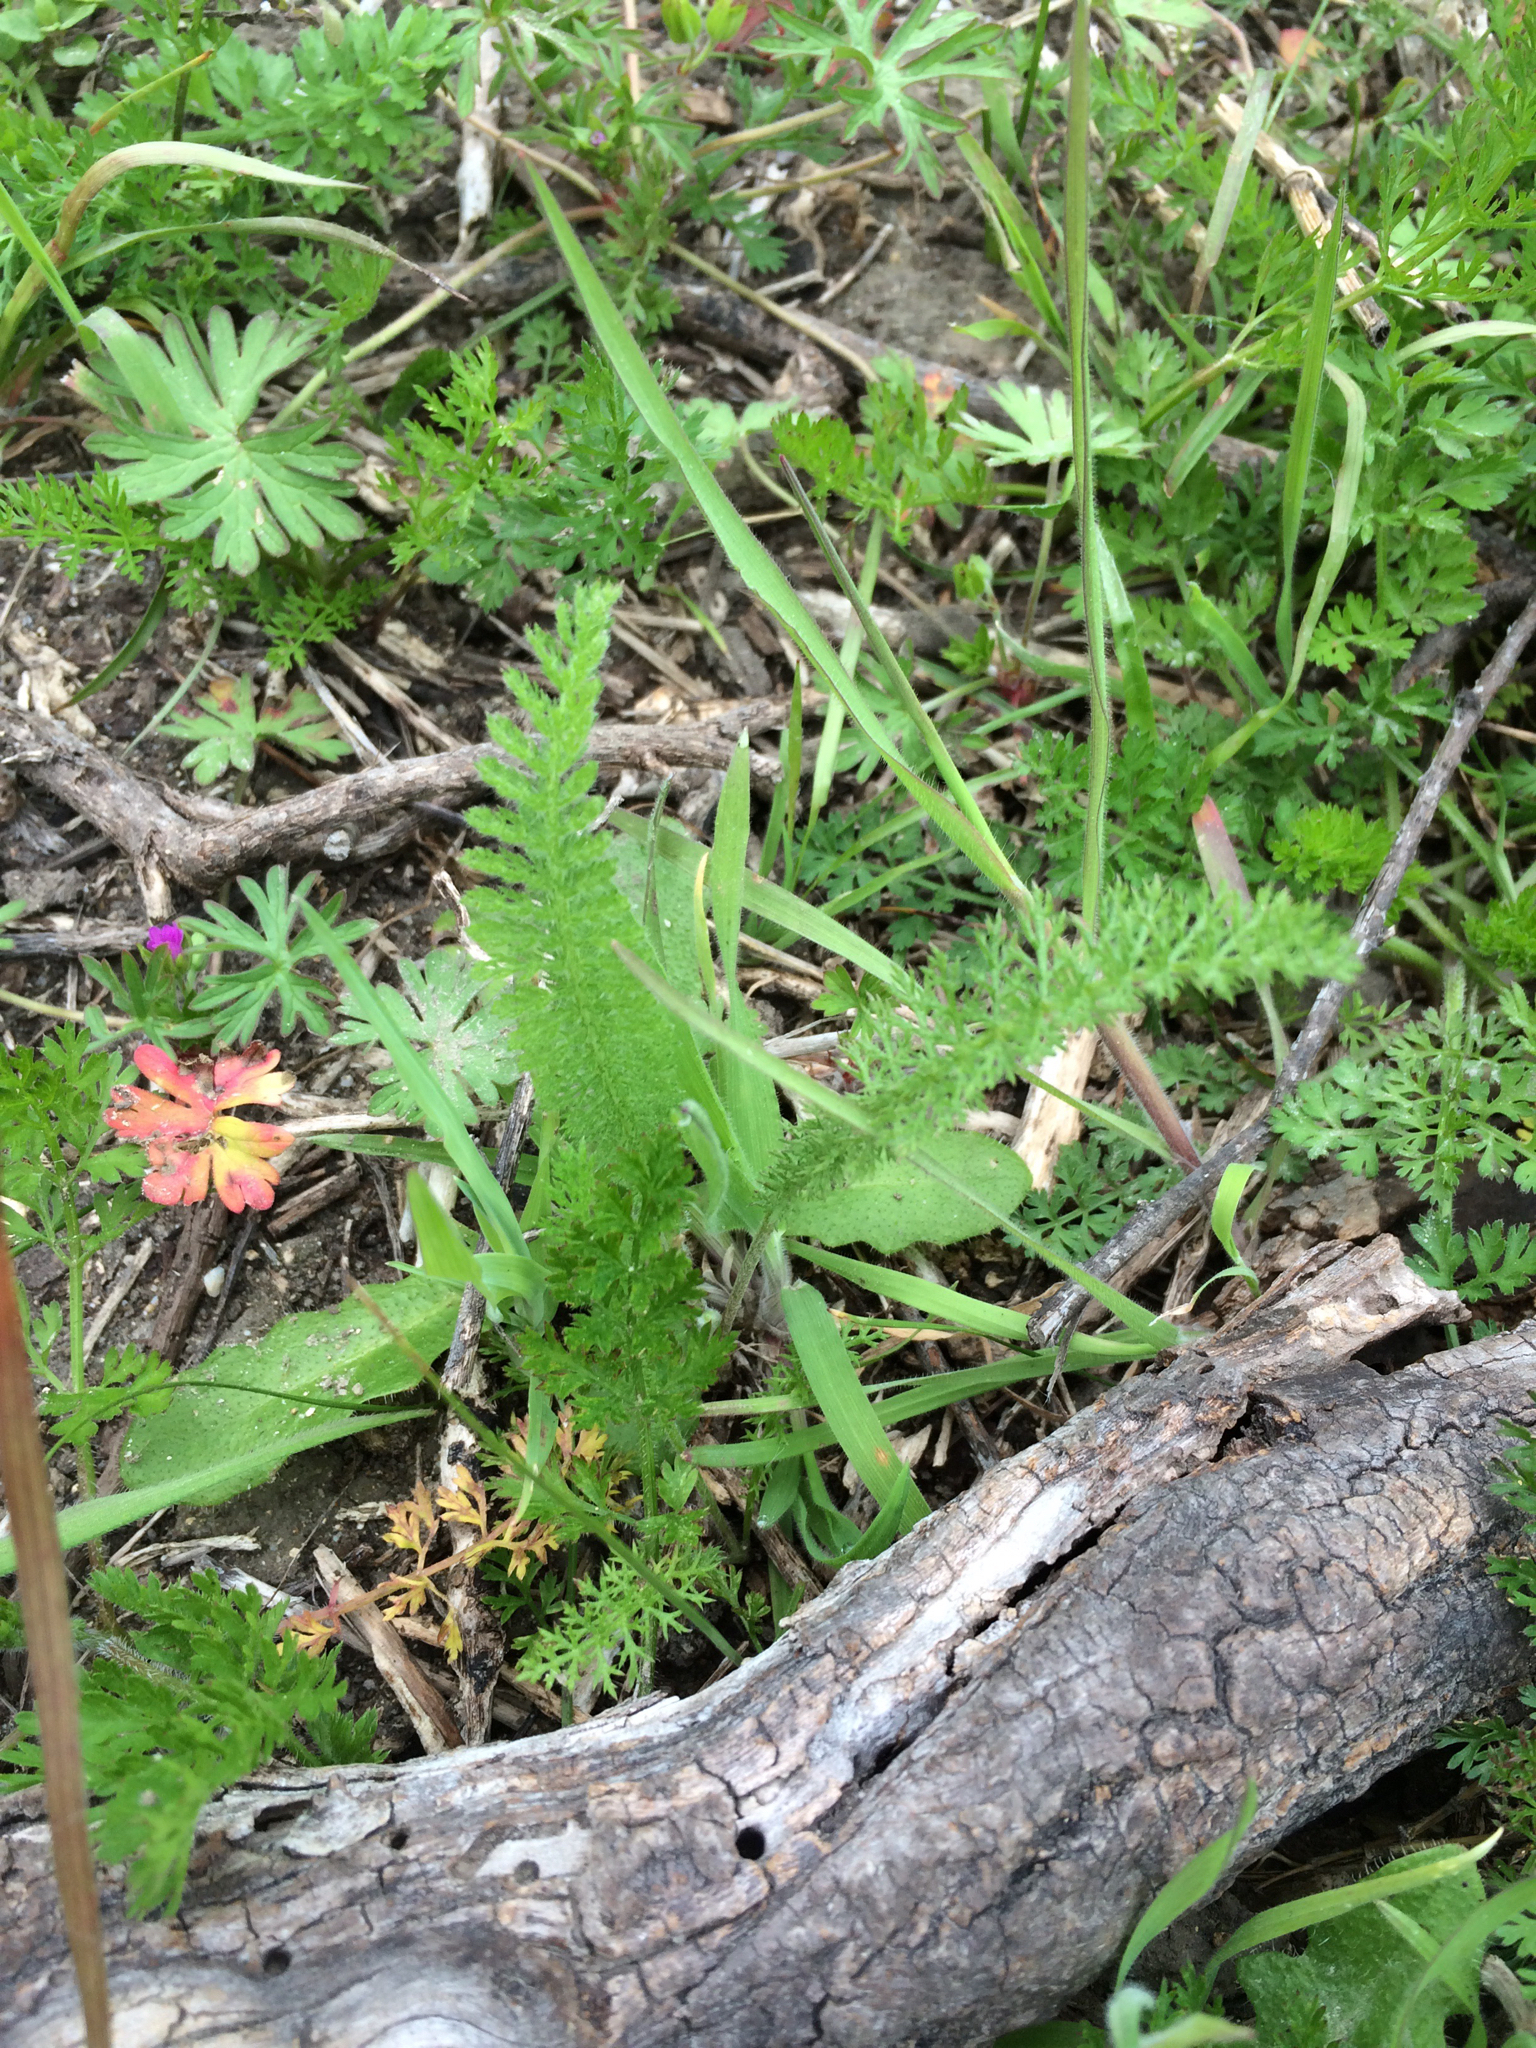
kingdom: Plantae
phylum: Tracheophyta
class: Magnoliopsida
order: Asterales
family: Asteraceae
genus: Achillea
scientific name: Achillea millefolium
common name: Yarrow
